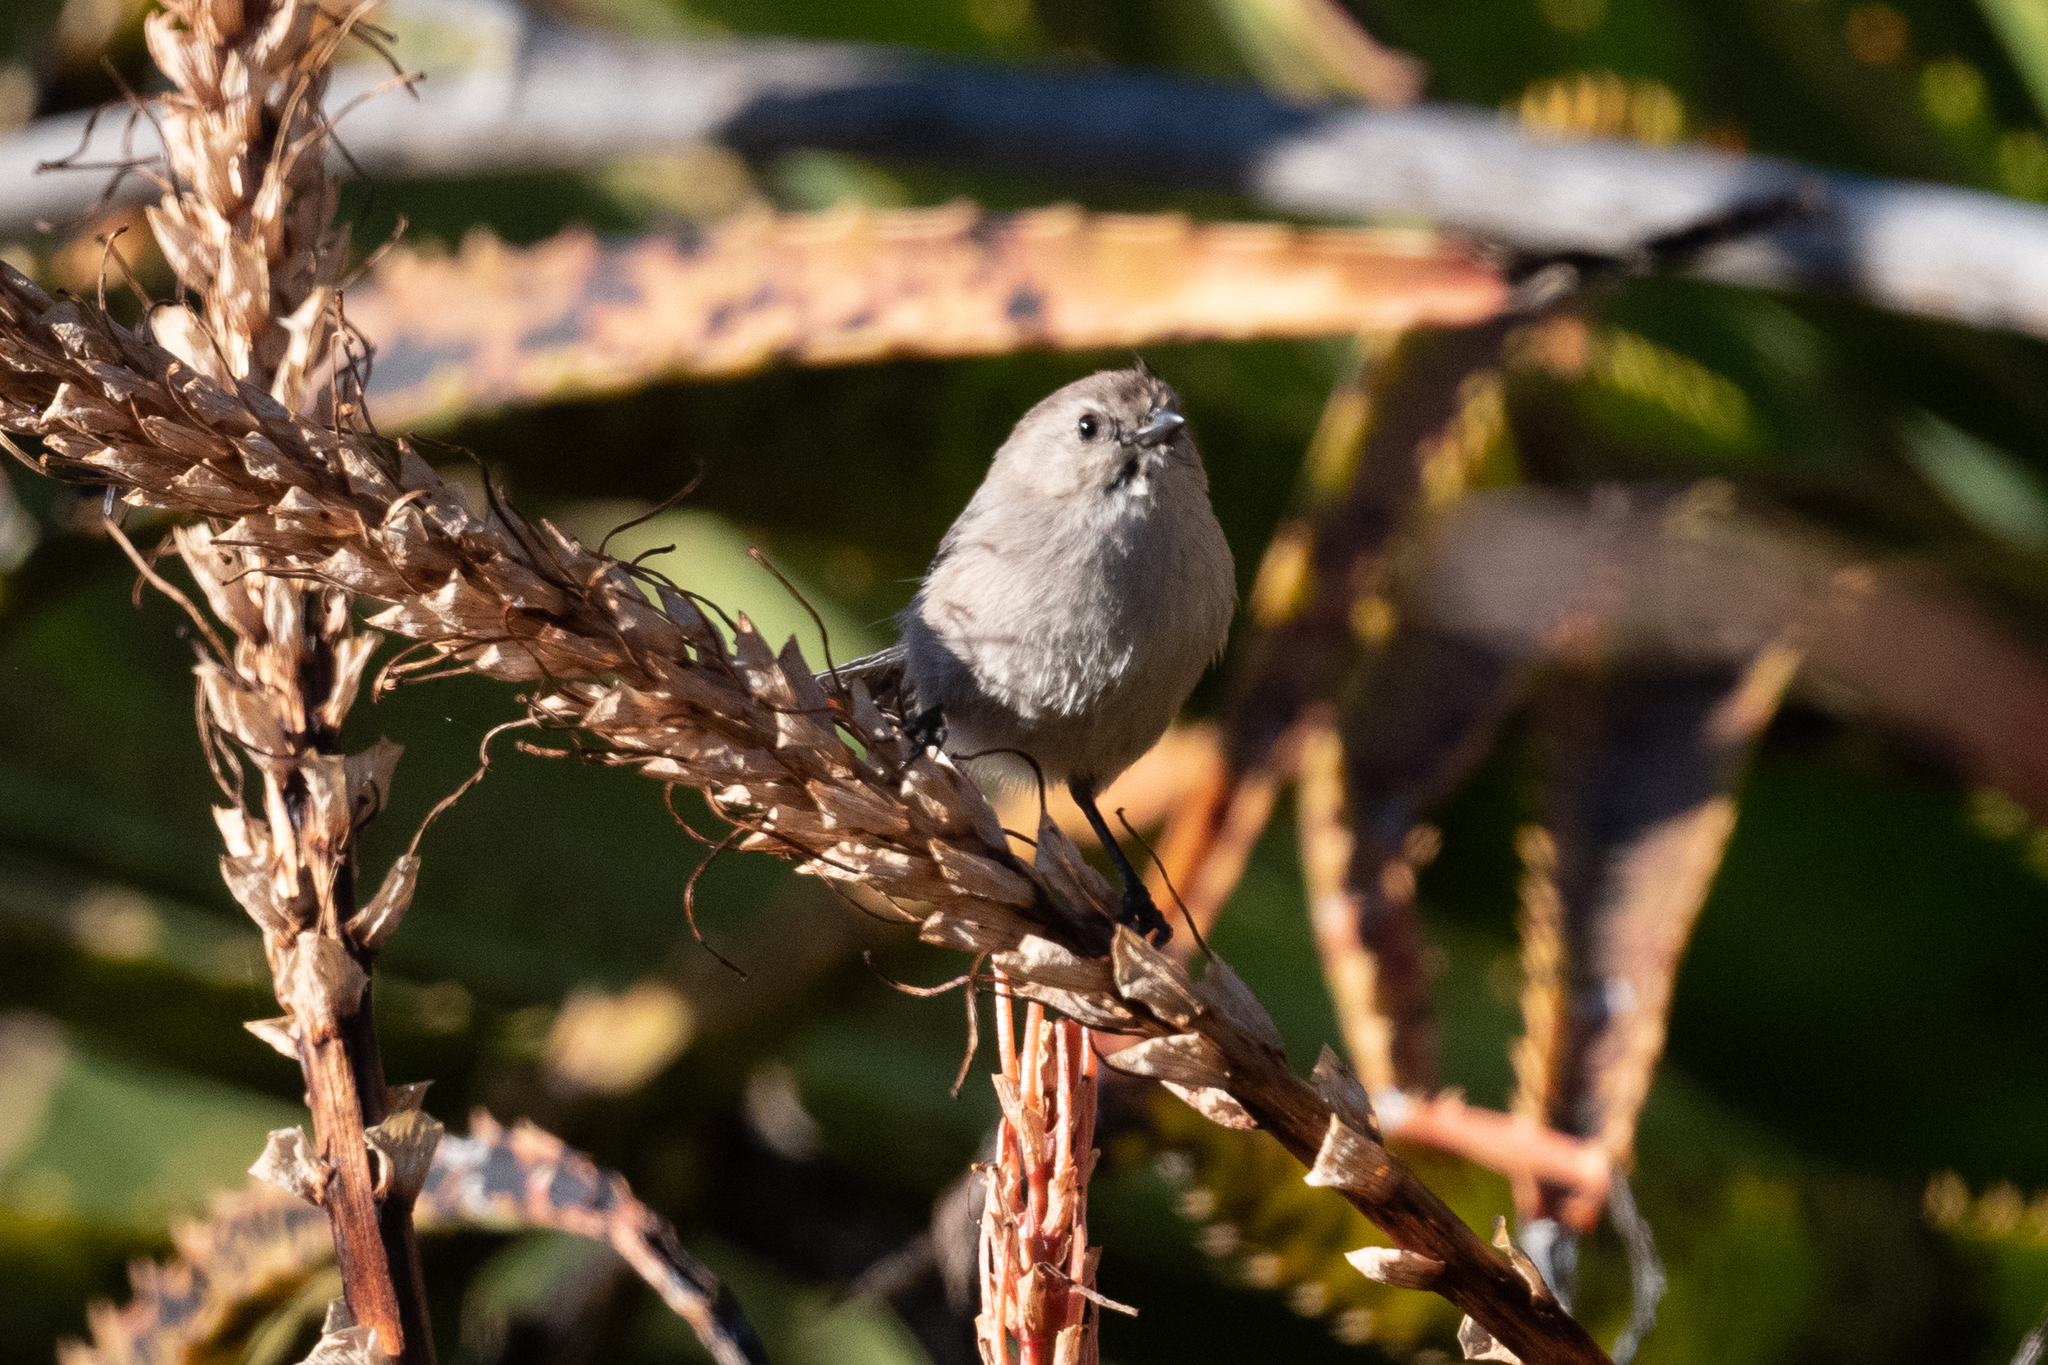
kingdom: Animalia
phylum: Chordata
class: Aves
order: Passeriformes
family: Aegithalidae
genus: Psaltriparus
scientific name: Psaltriparus minimus
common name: American bushtit
